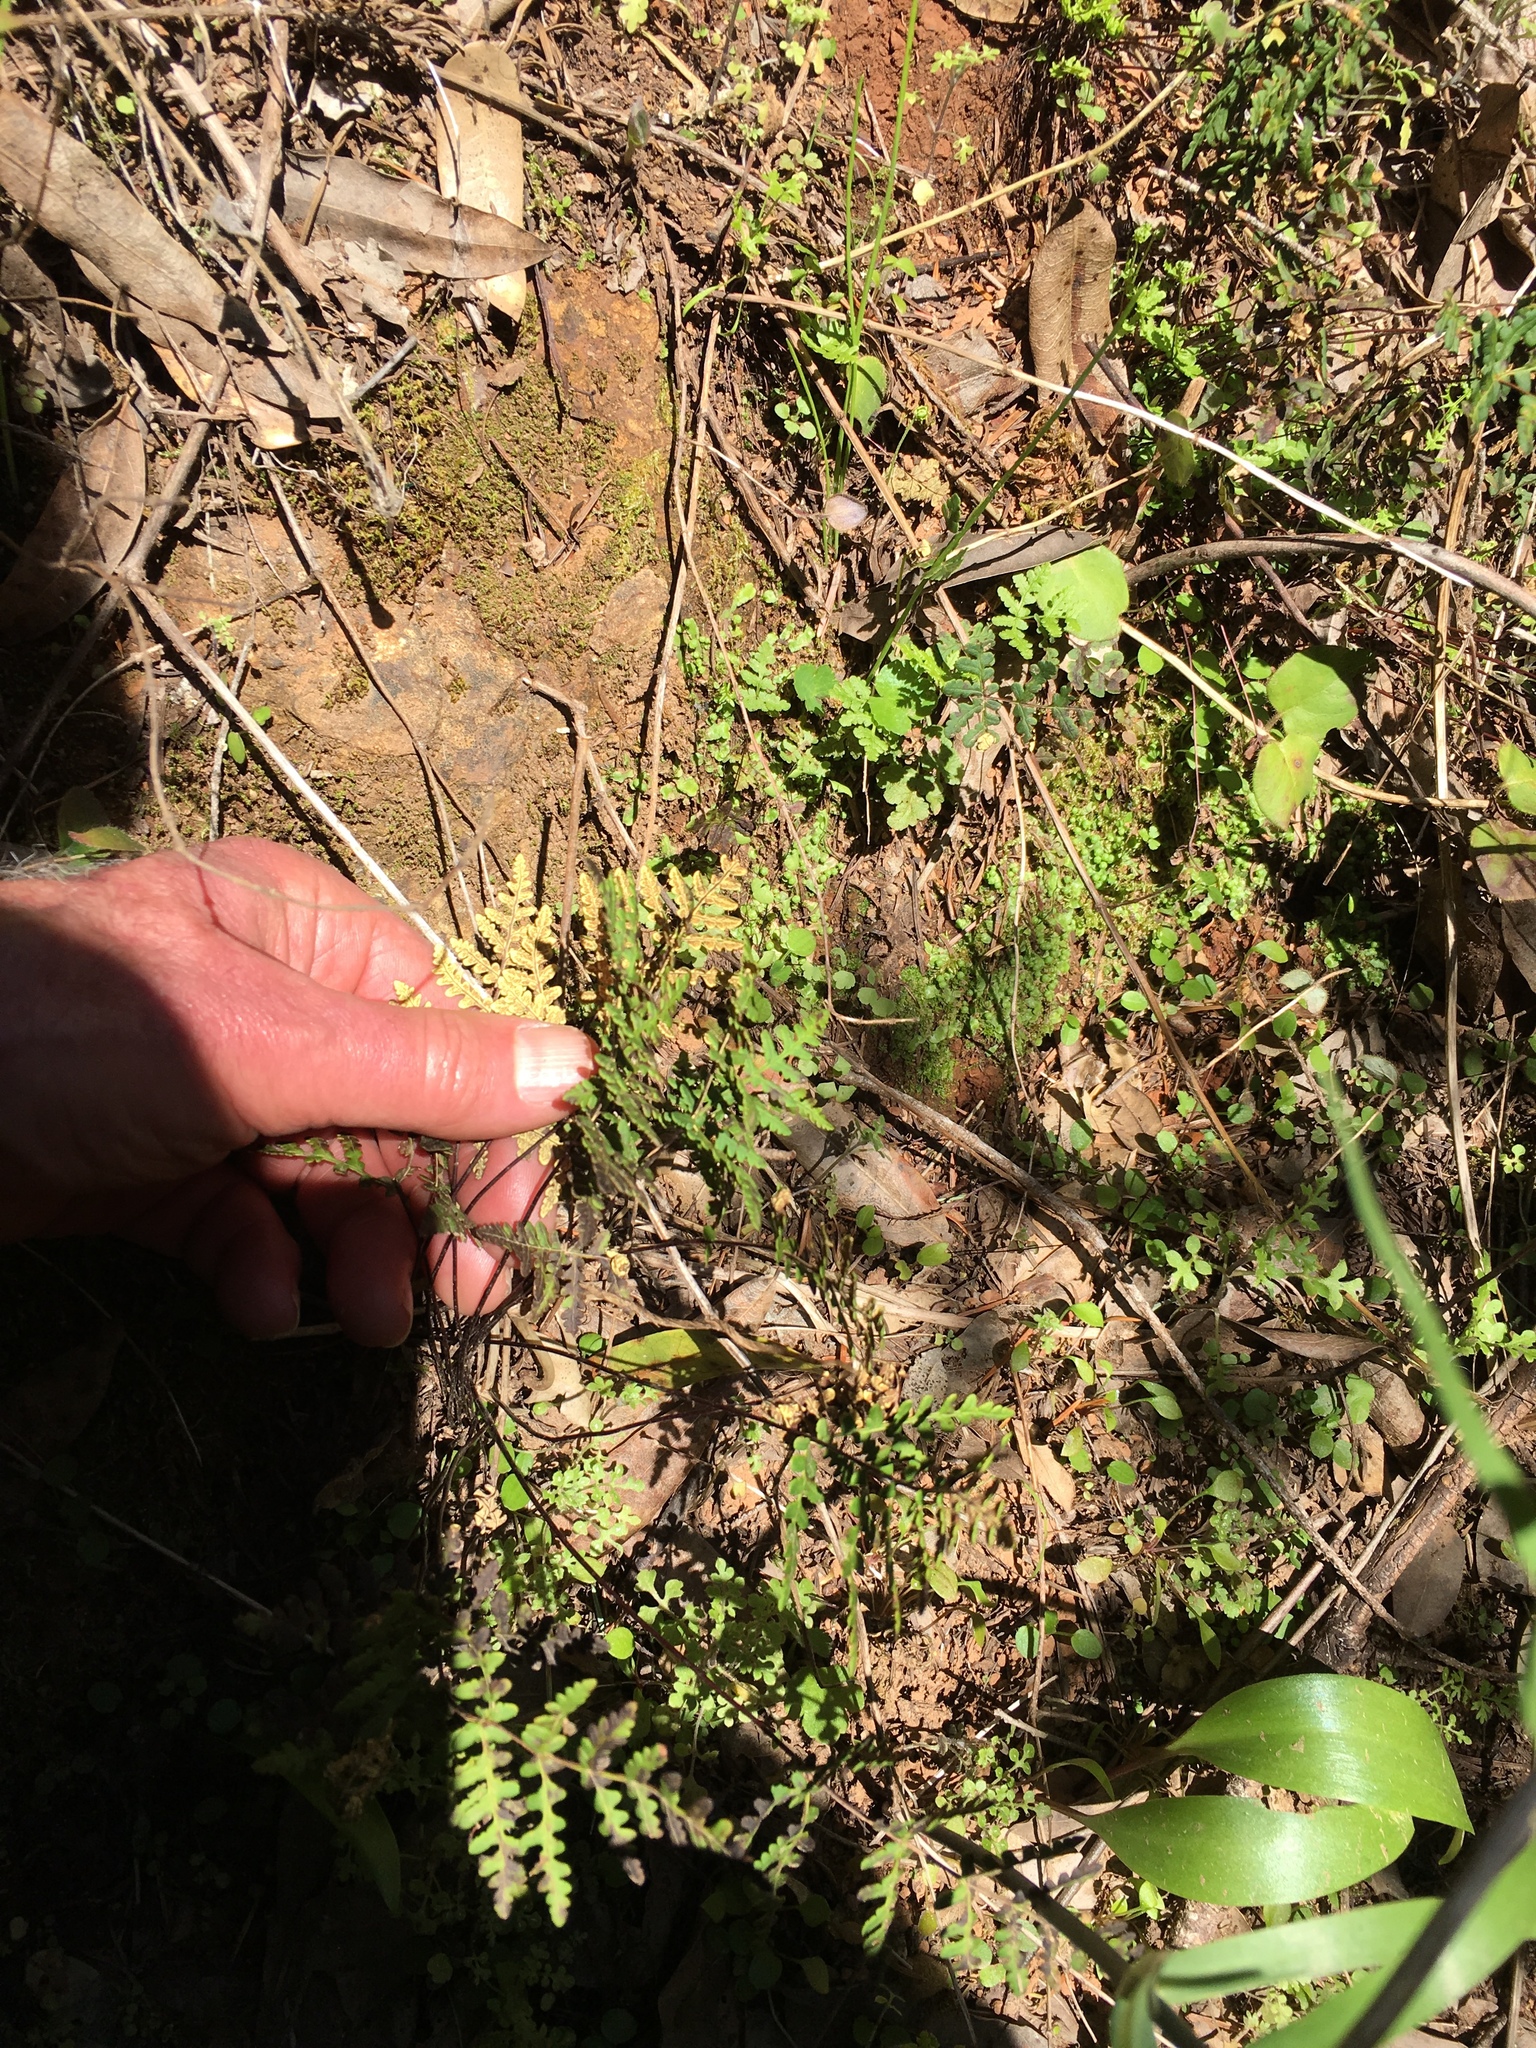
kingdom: Plantae
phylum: Tracheophyta
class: Polypodiopsida
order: Polypodiales
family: Pteridaceae
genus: Pentagramma
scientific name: Pentagramma triangularis
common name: Gold fern
